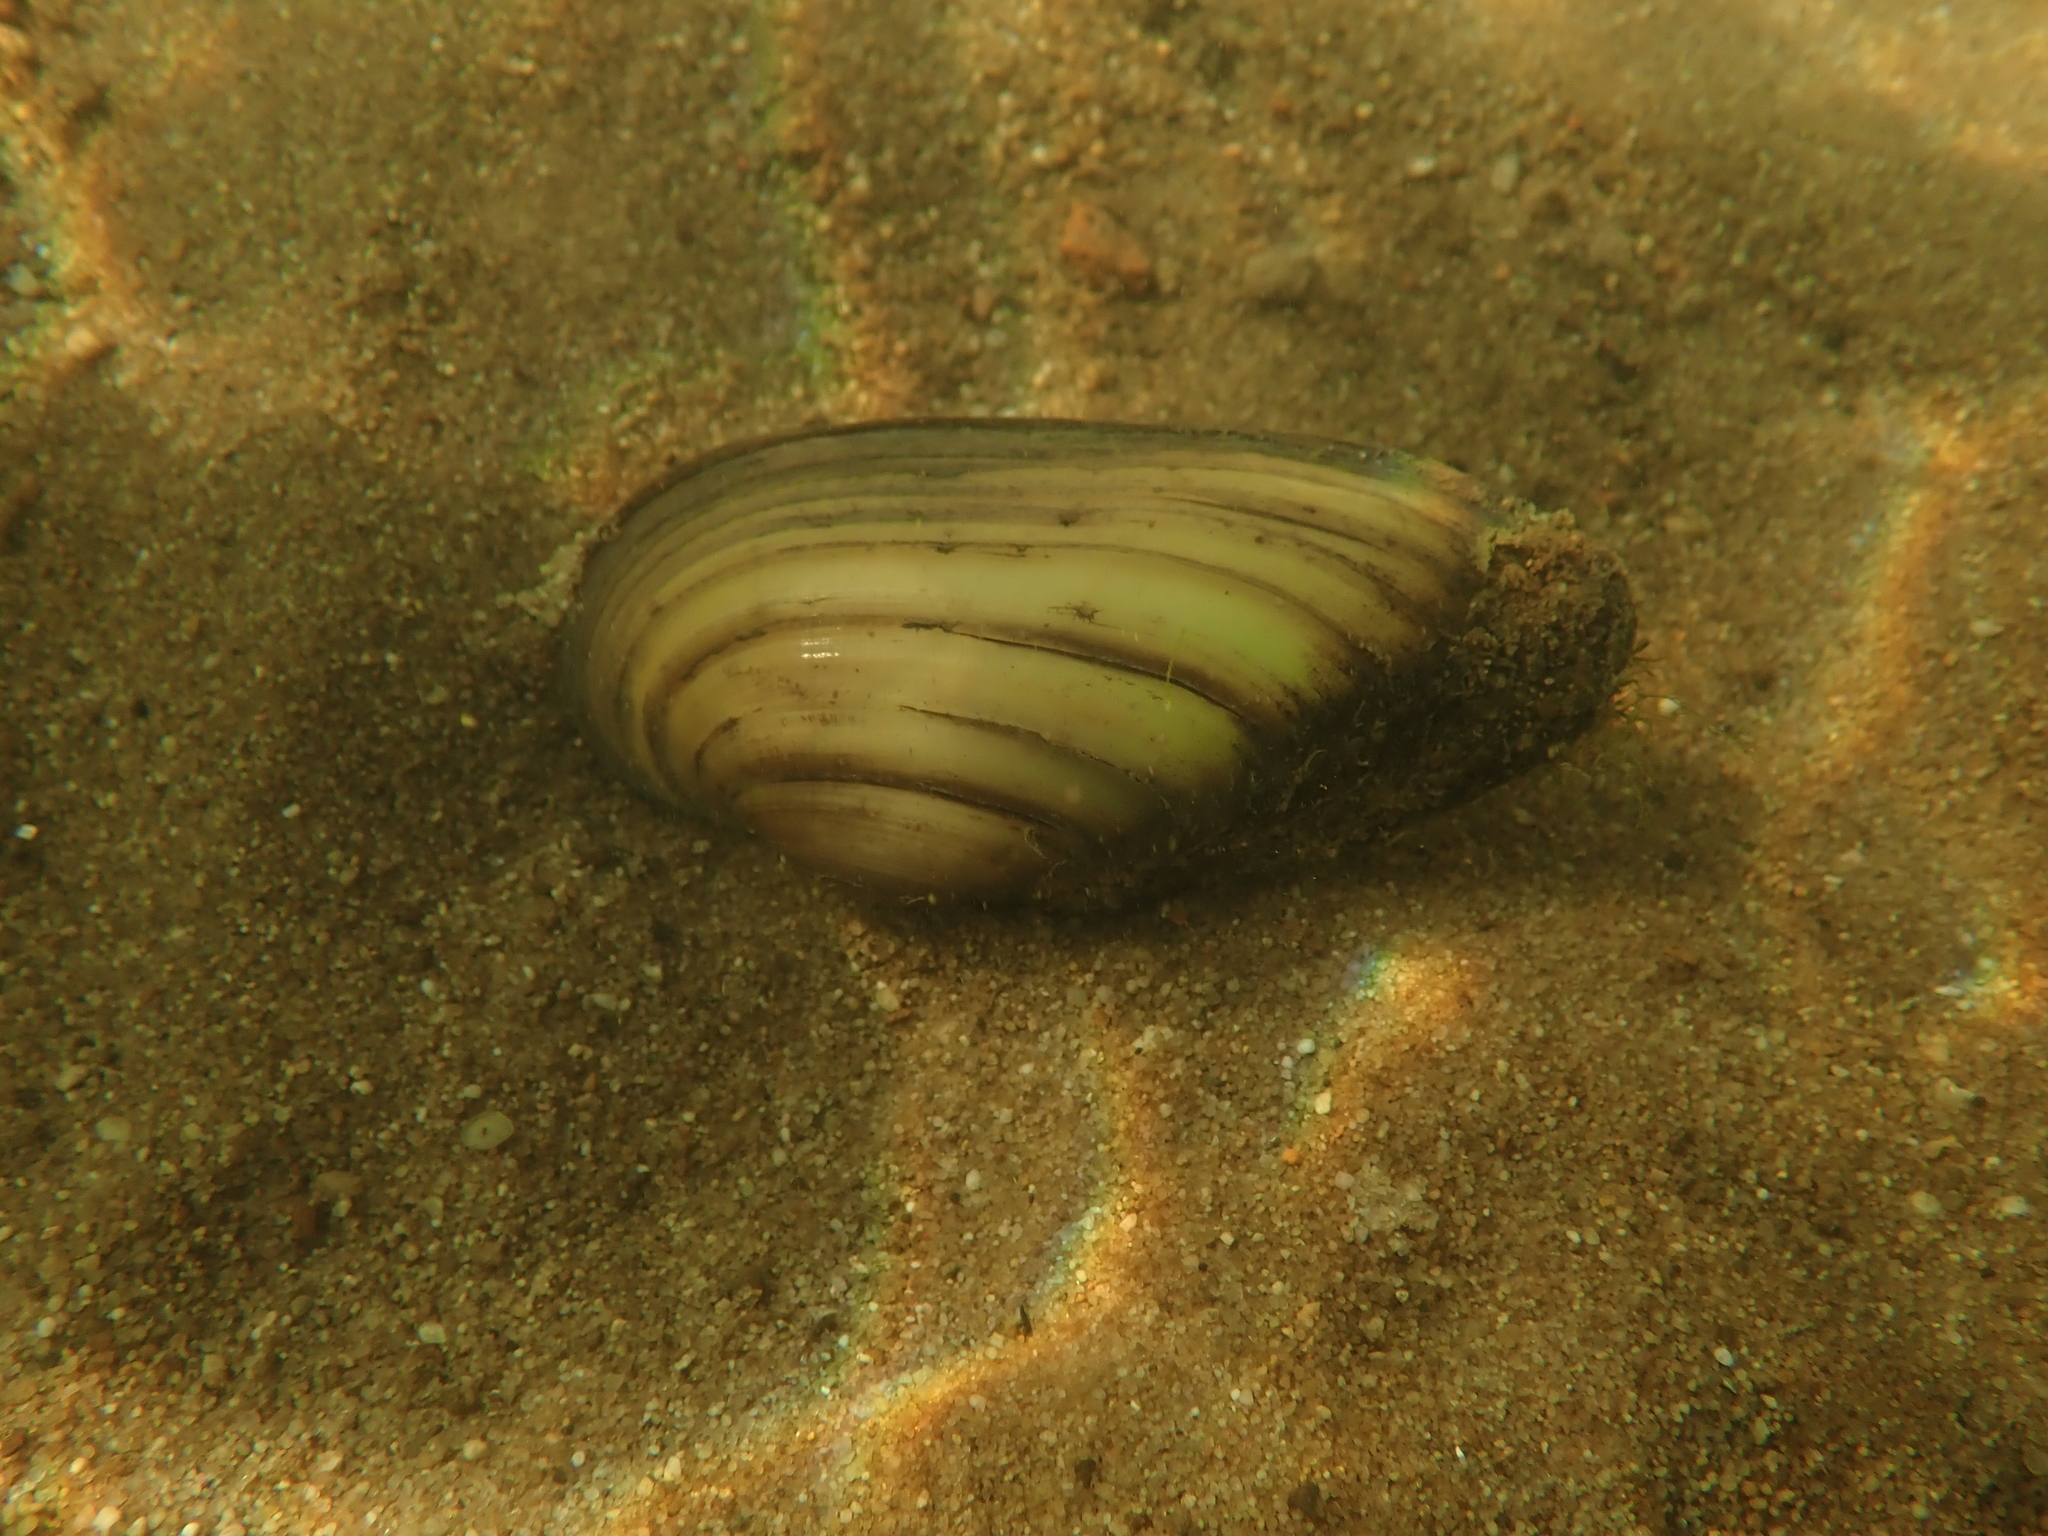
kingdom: Animalia
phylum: Mollusca
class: Bivalvia
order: Unionida
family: Unionidae
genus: Unio
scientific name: Unio pictorum
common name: Painter's mussel
